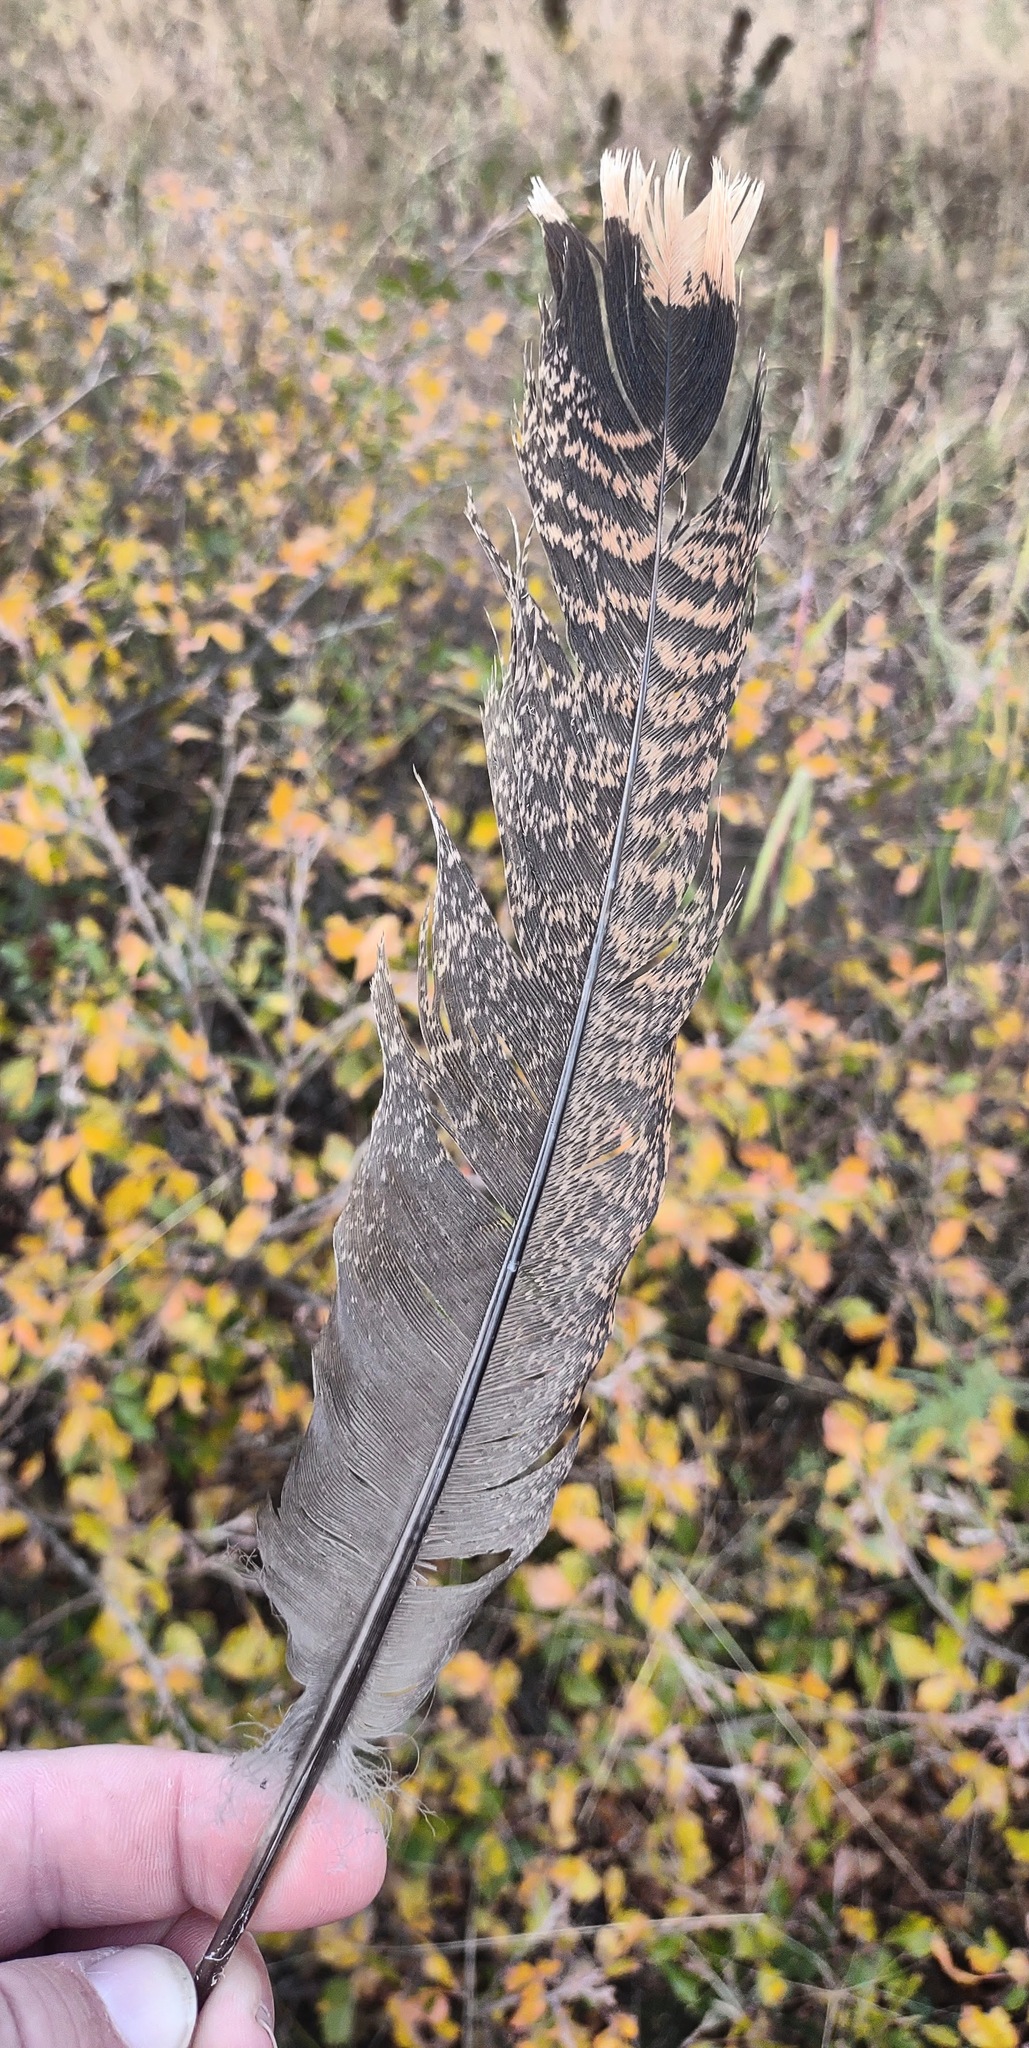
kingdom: Animalia
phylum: Chordata
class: Aves
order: Galliformes
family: Phasianidae
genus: Meleagris
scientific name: Meleagris gallopavo
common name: Wild turkey
